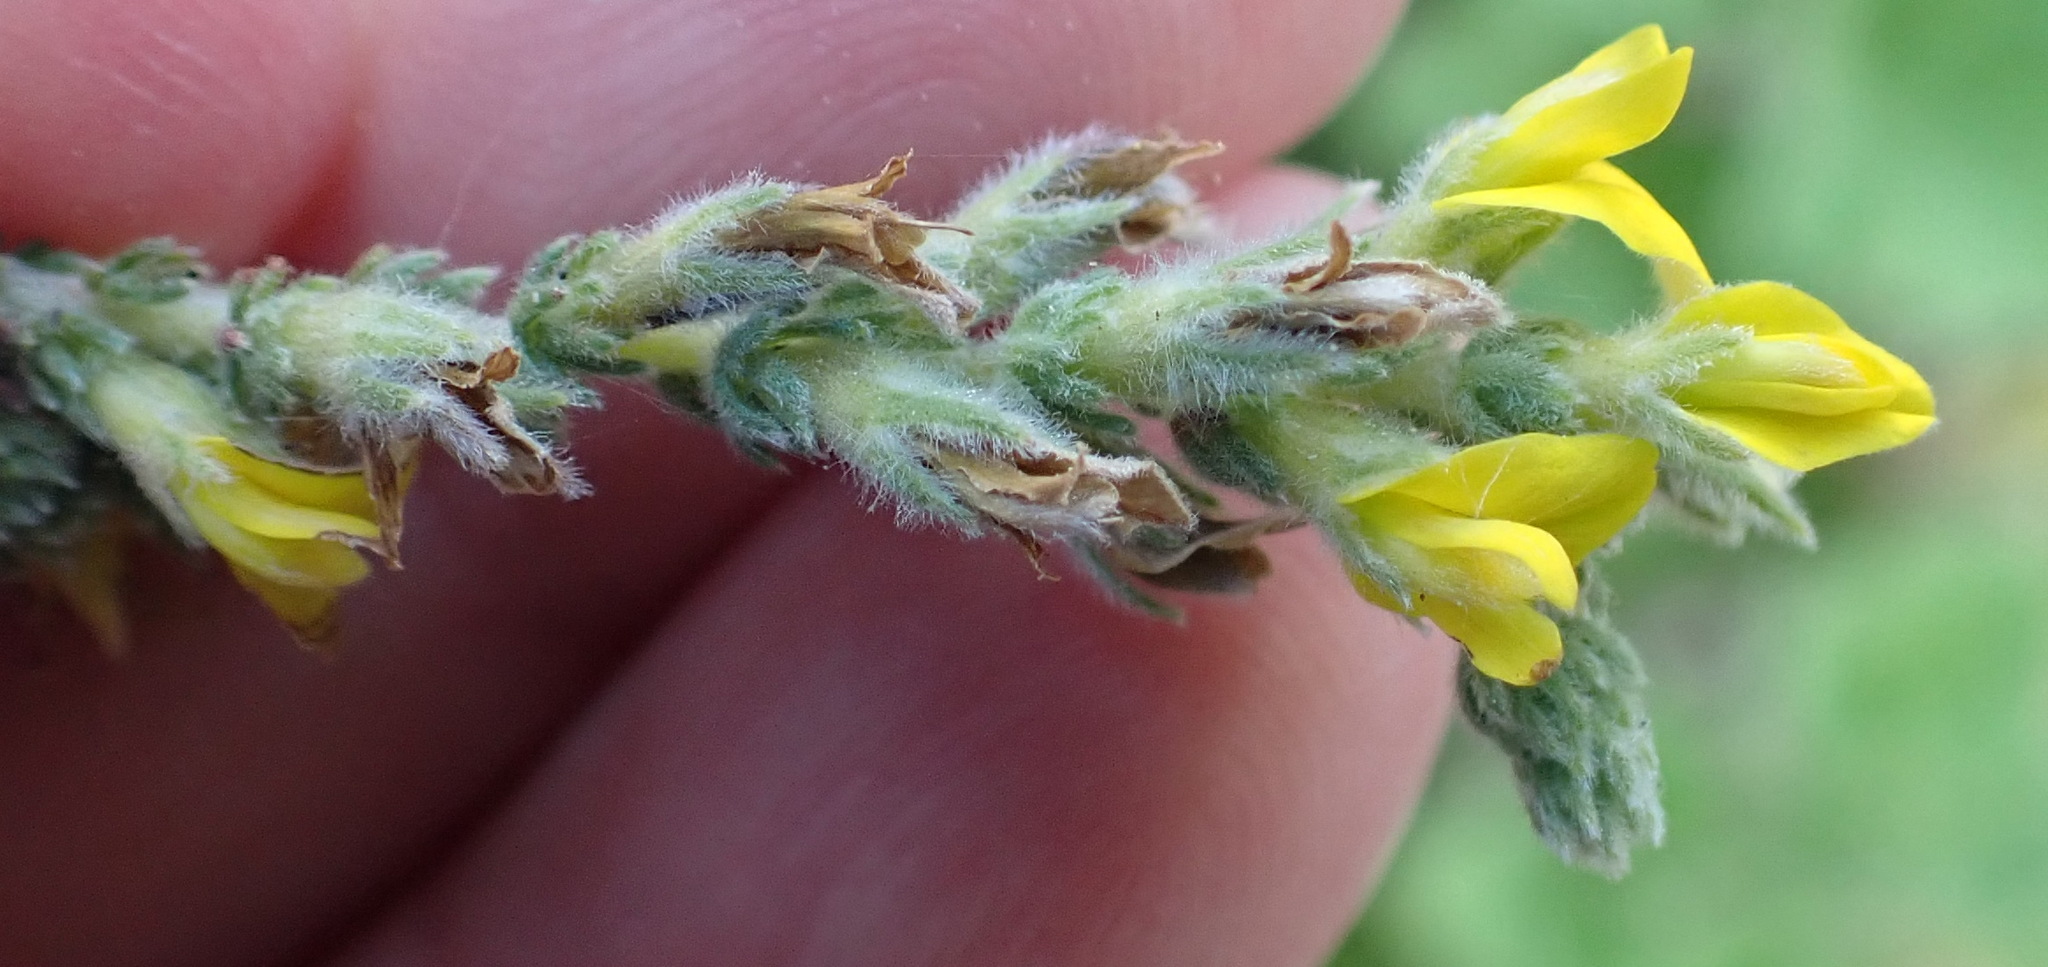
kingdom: Plantae
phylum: Tracheophyta
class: Magnoliopsida
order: Fabales
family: Fabaceae
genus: Aspalathus
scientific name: Aspalathus ericifolia
